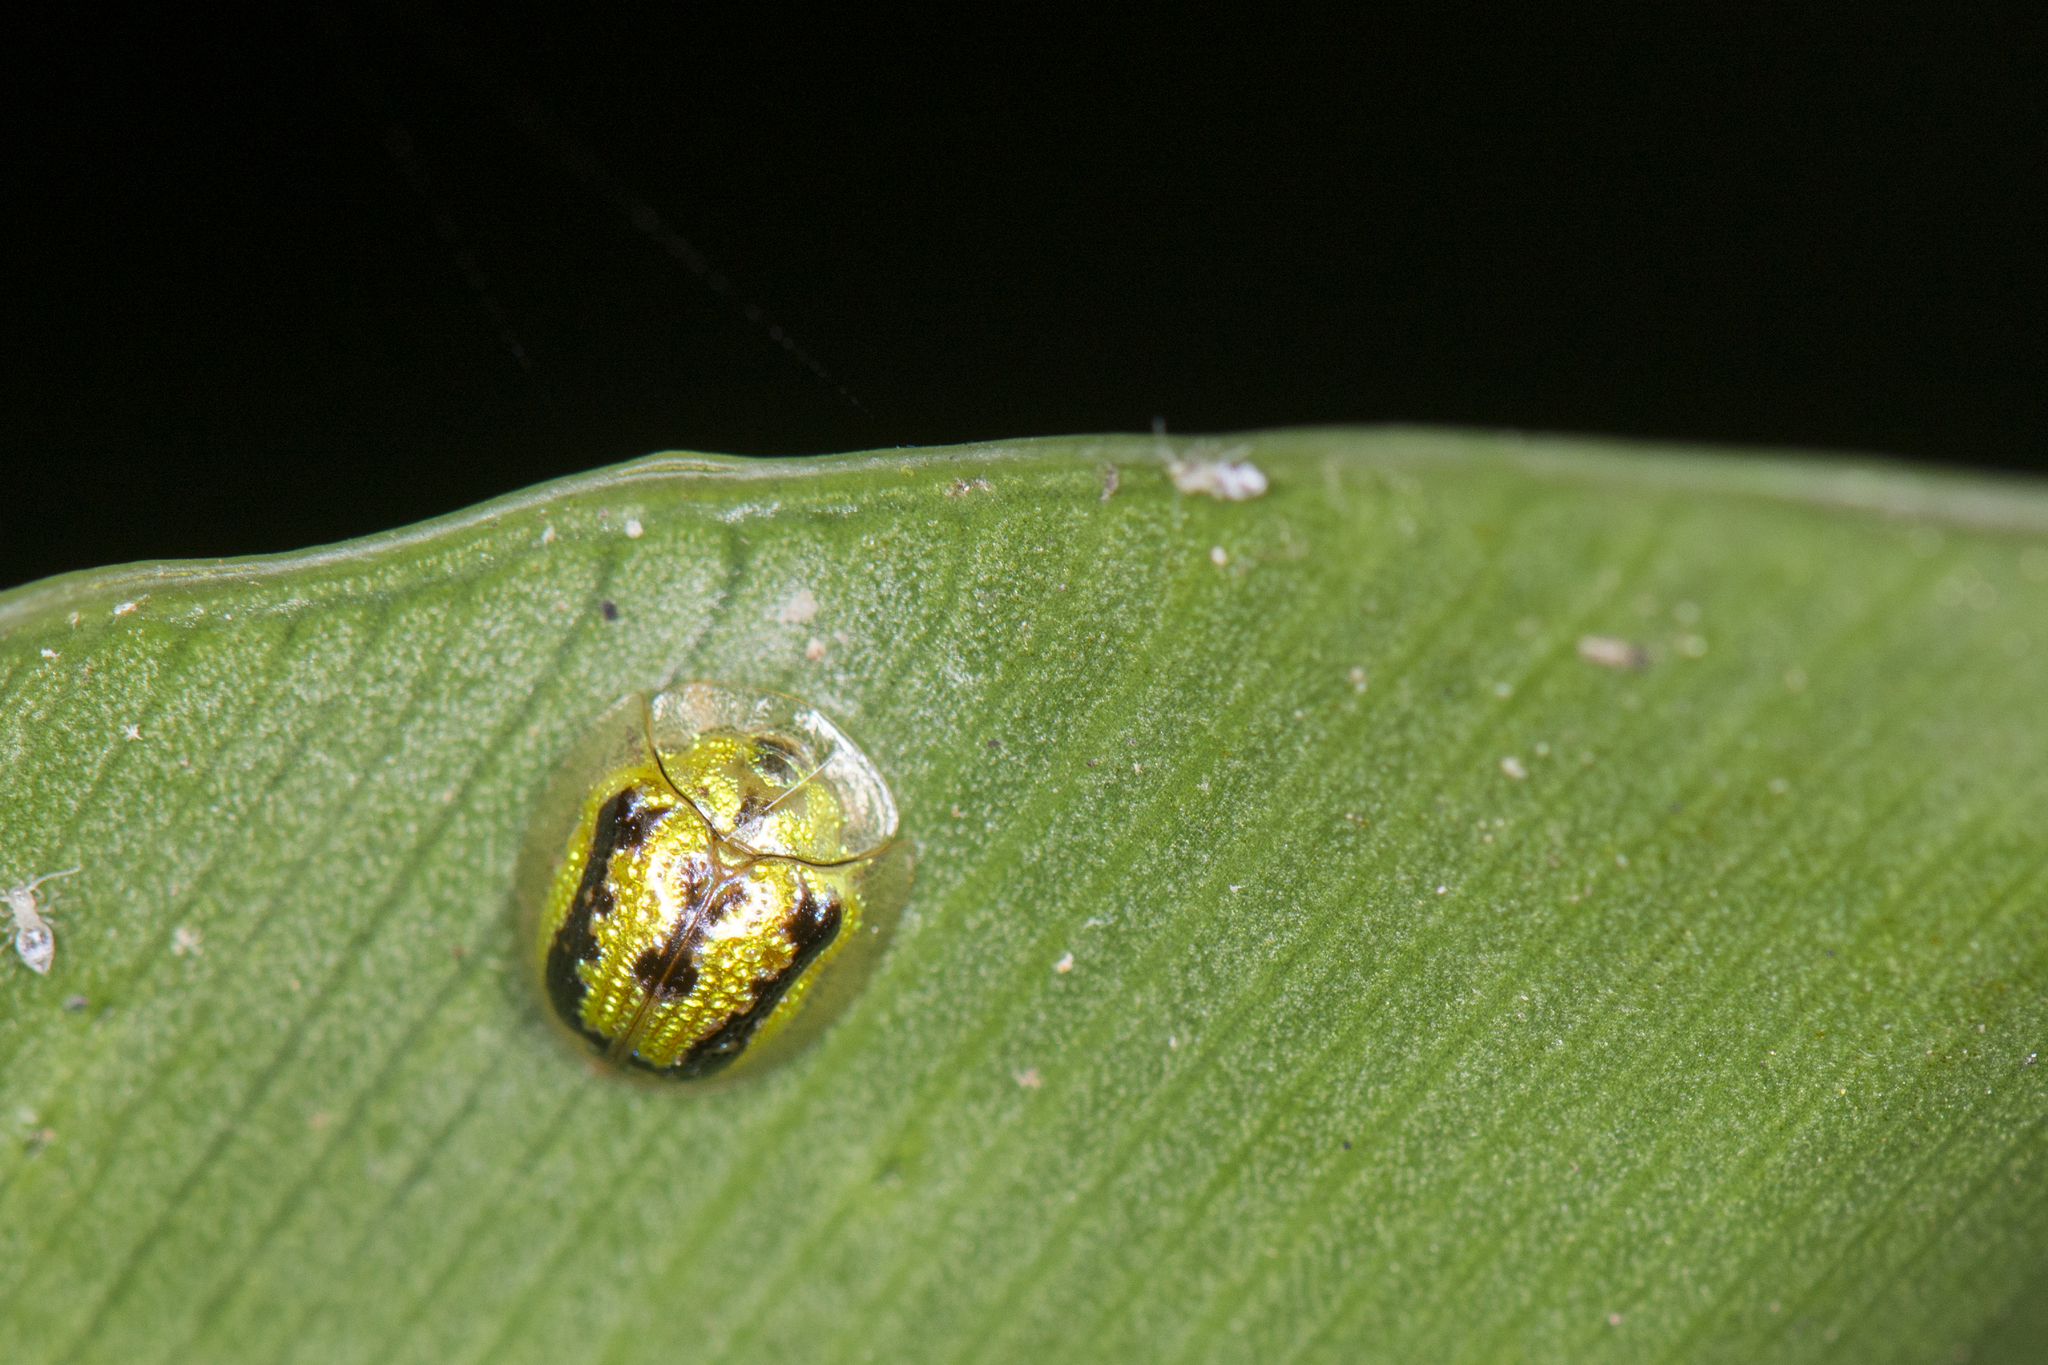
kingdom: Animalia
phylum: Arthropoda
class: Insecta
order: Coleoptera
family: Chrysomelidae
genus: Cassida
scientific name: Cassida circumdata
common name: Tortoise beetle
